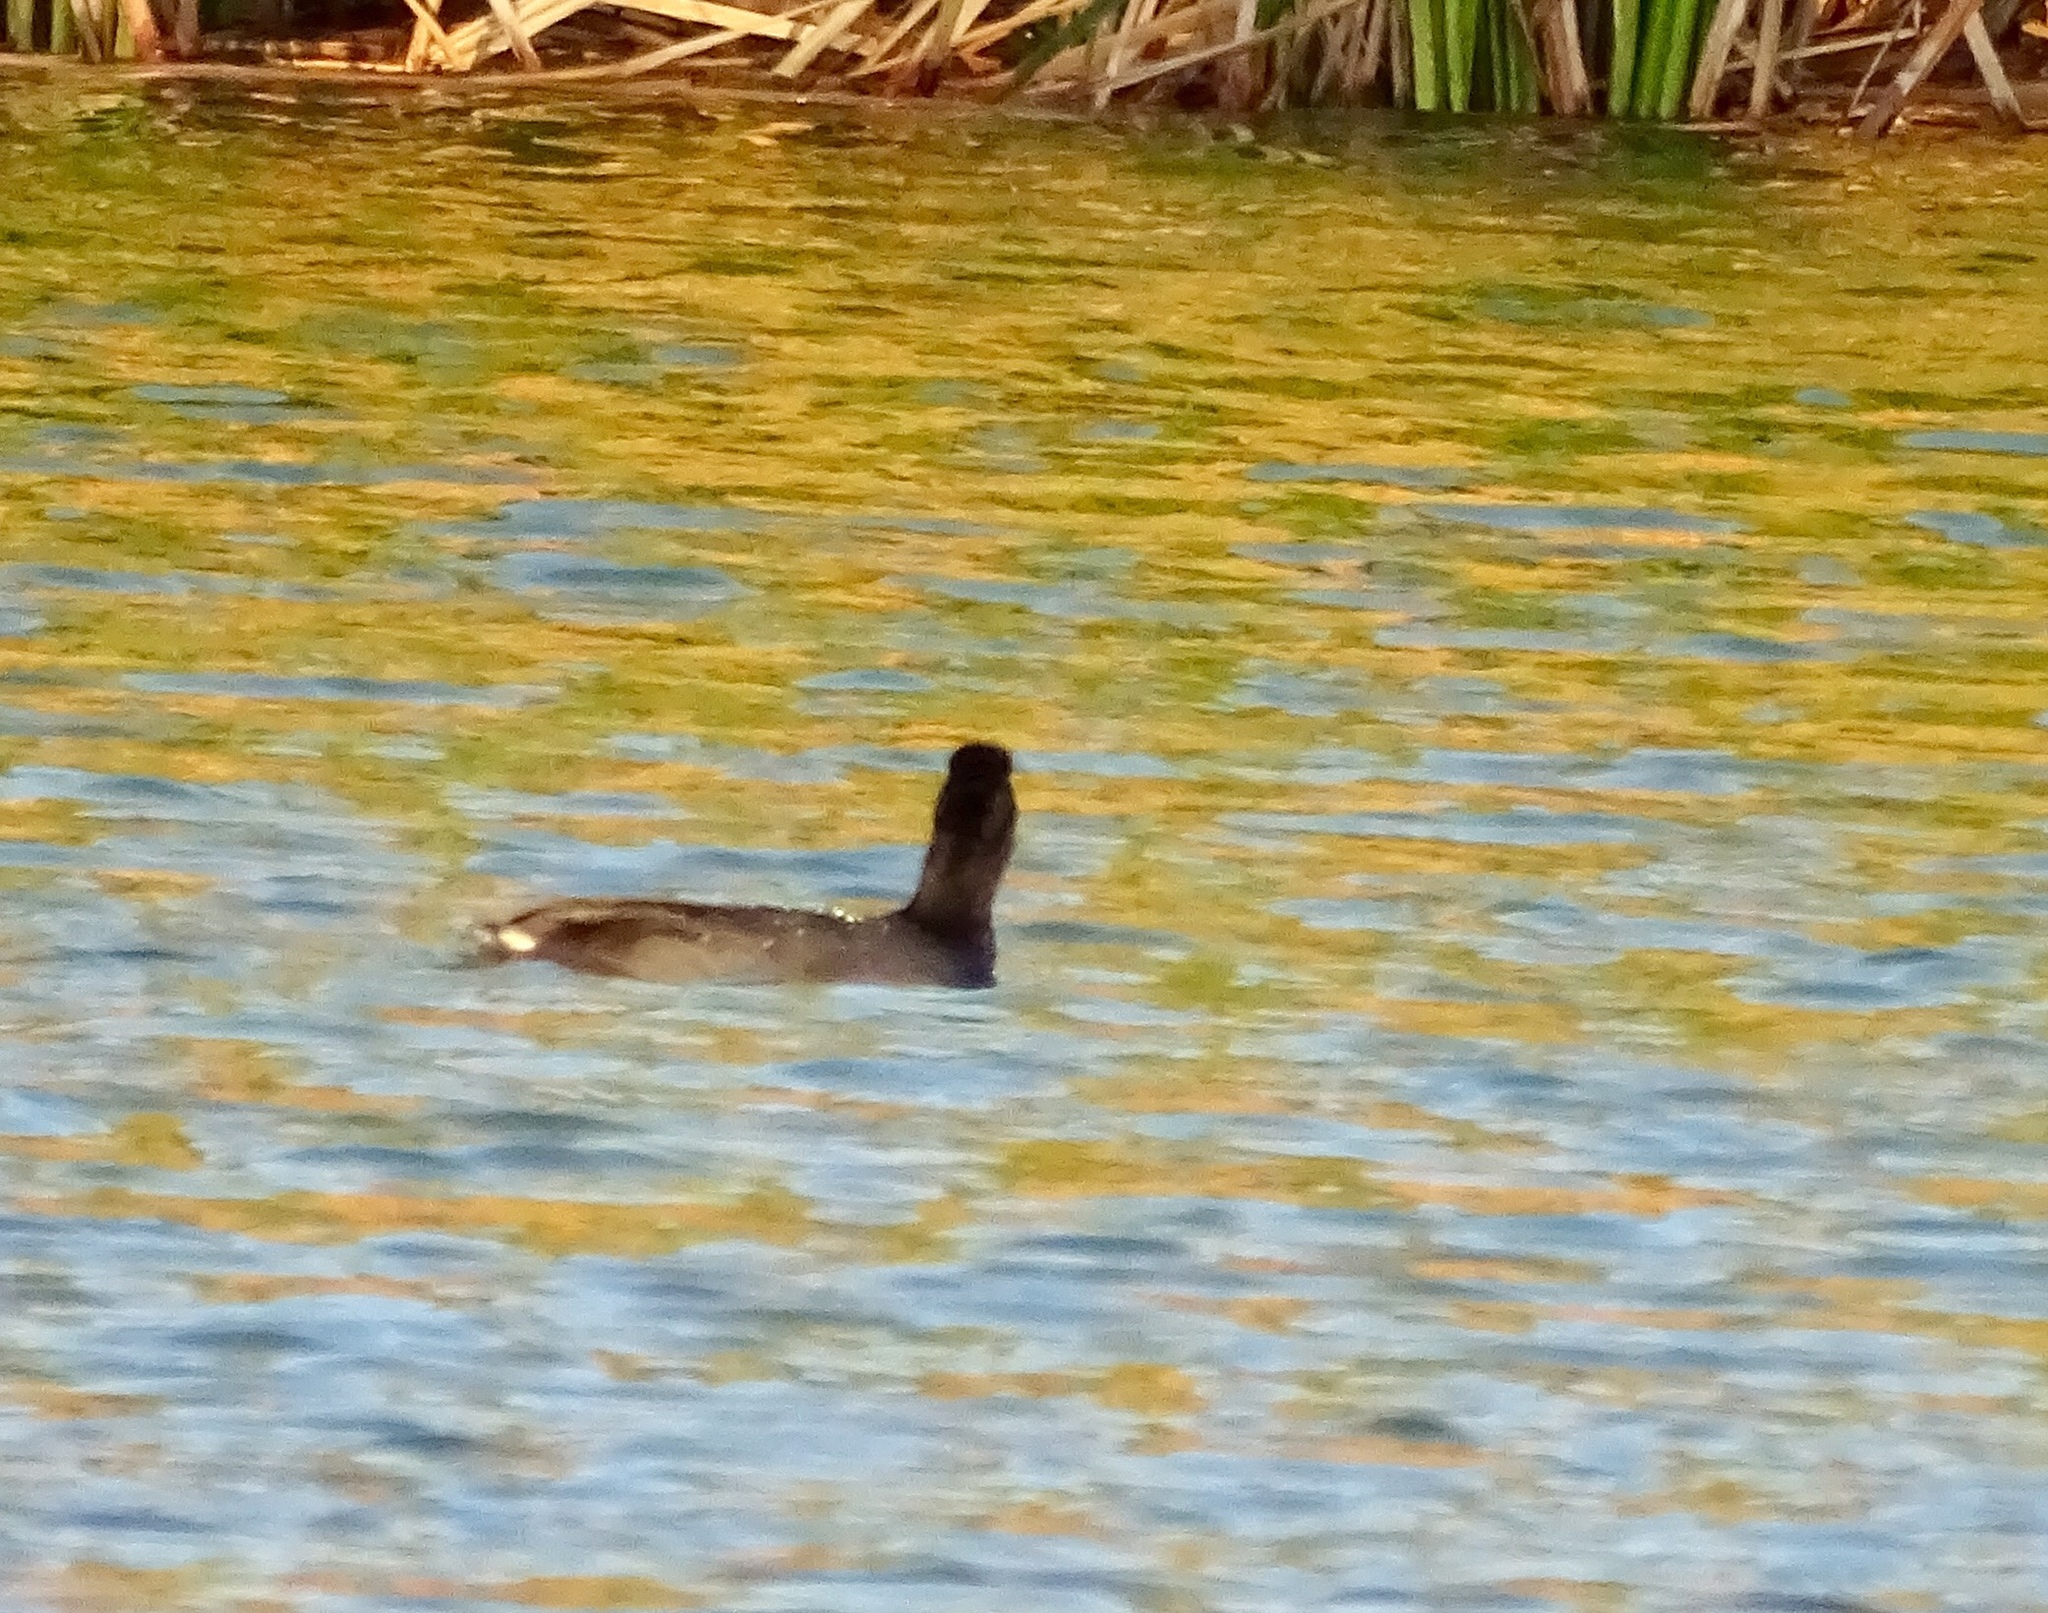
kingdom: Animalia
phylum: Chordata
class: Aves
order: Gruiformes
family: Rallidae
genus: Fulica
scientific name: Fulica americana
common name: American coot
